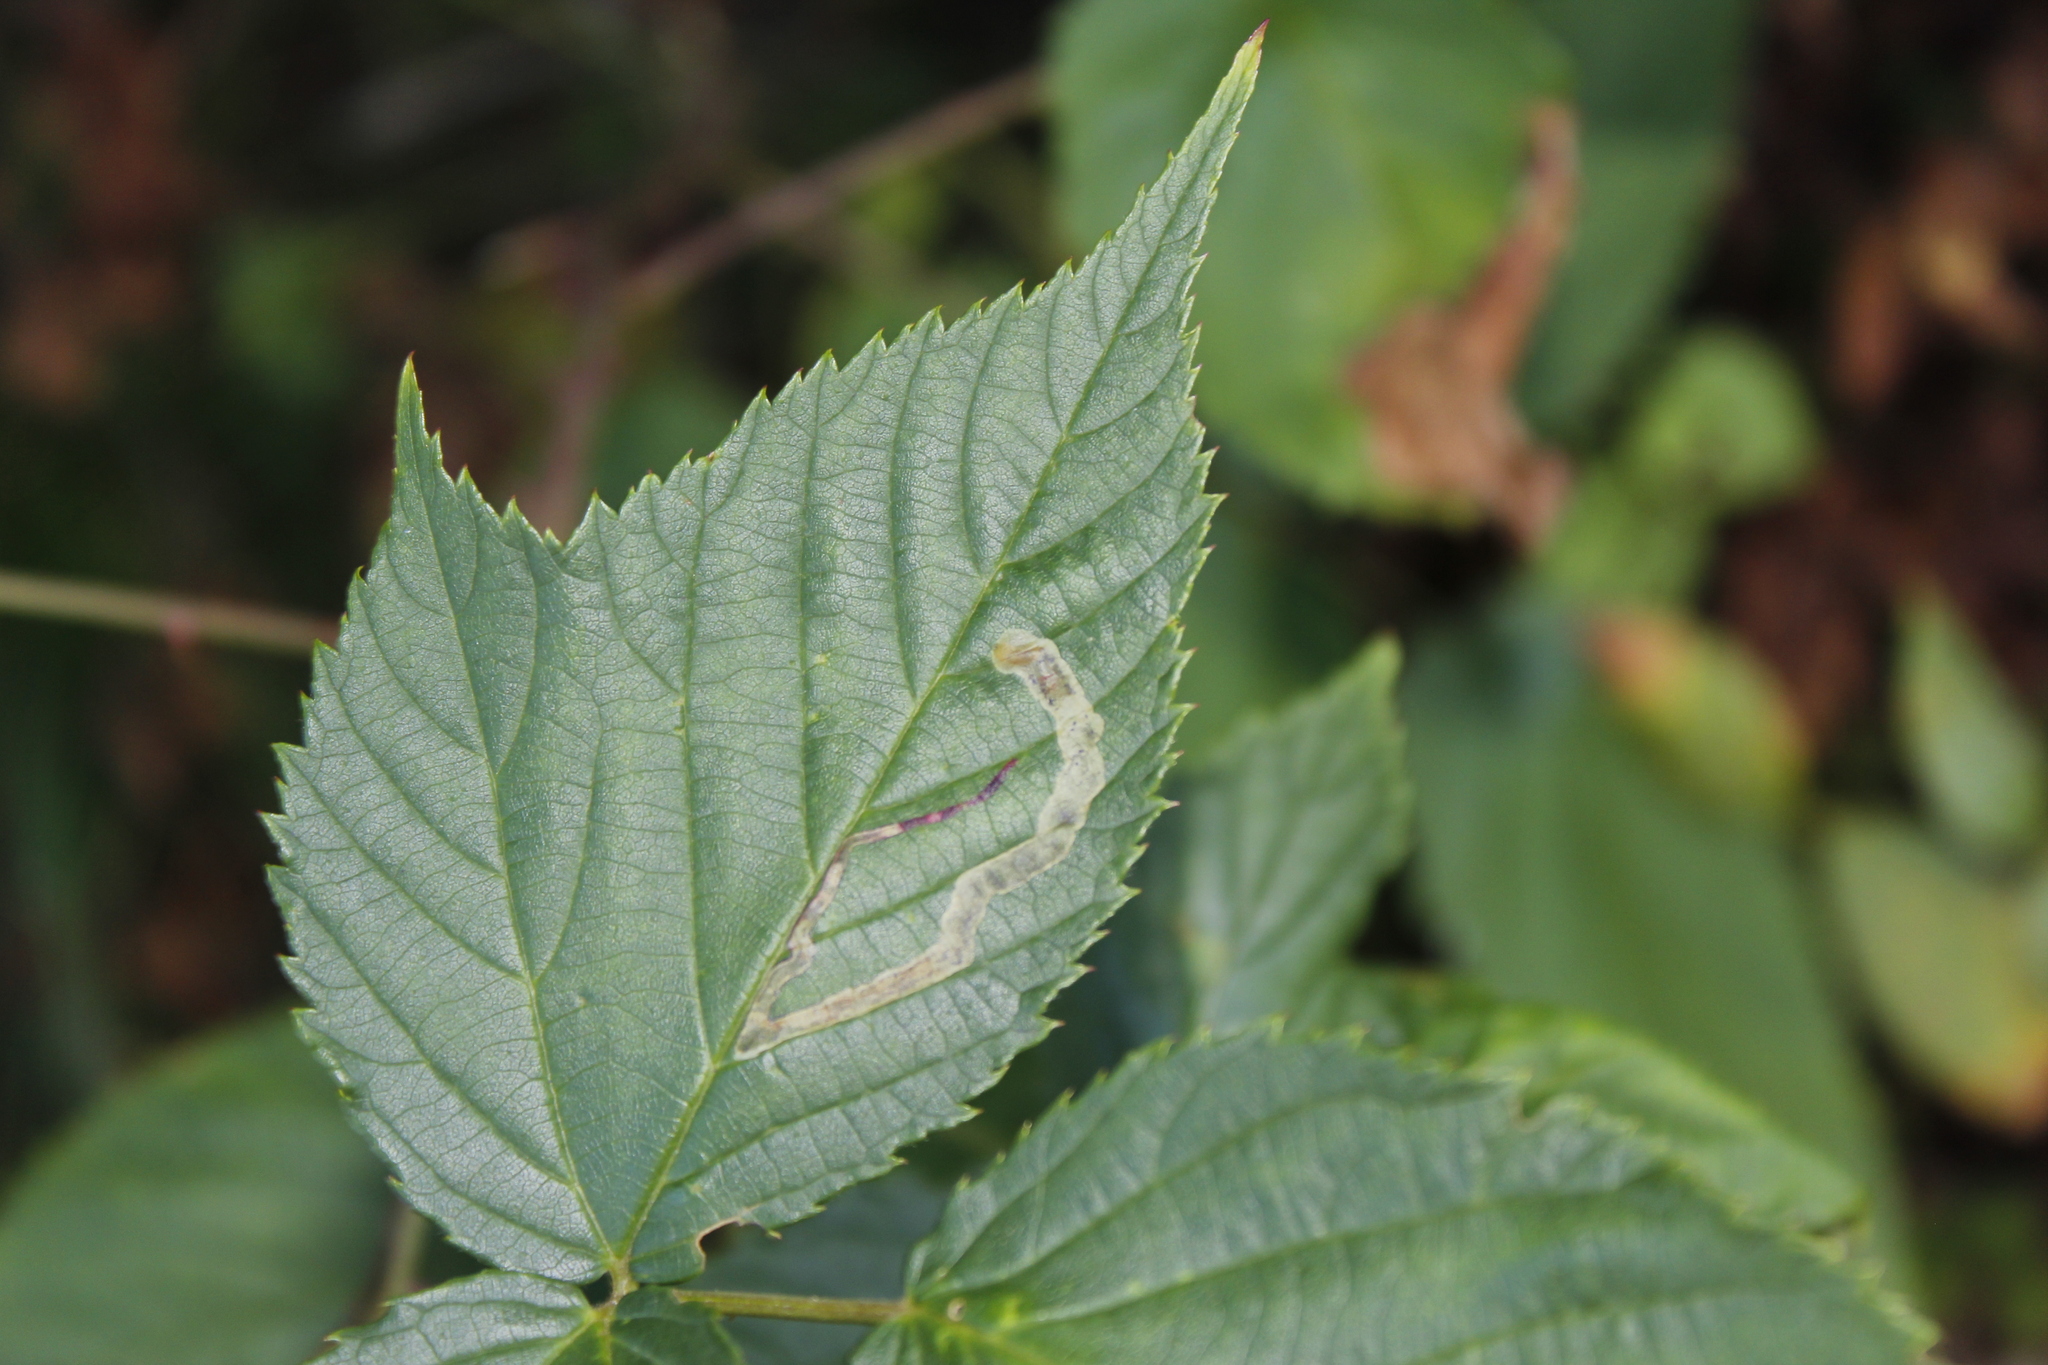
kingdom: Animalia
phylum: Arthropoda
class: Insecta
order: Diptera
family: Agromyzidae
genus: Agromyza
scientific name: Agromyza vockerothi
